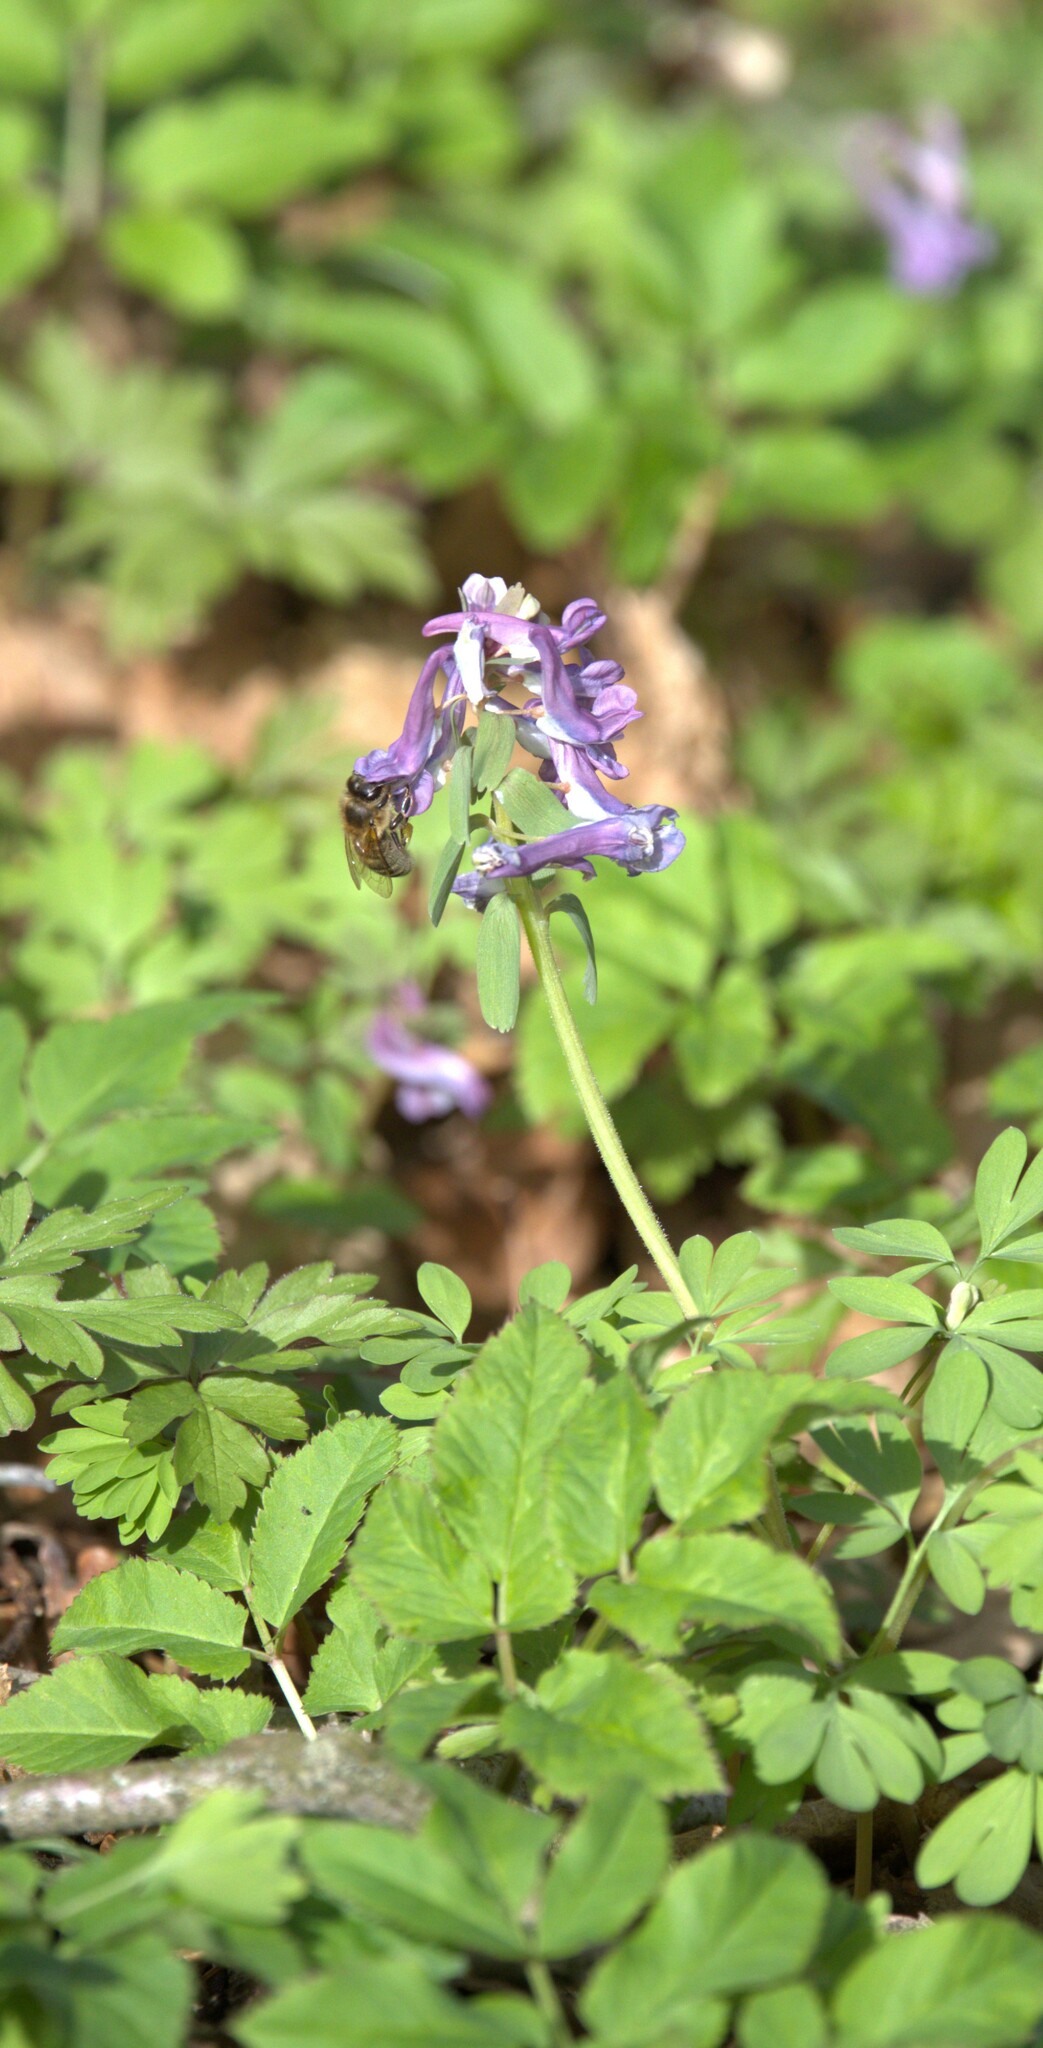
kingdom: Animalia
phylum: Arthropoda
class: Insecta
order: Hymenoptera
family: Apidae
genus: Apis
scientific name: Apis mellifera
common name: Honey bee
